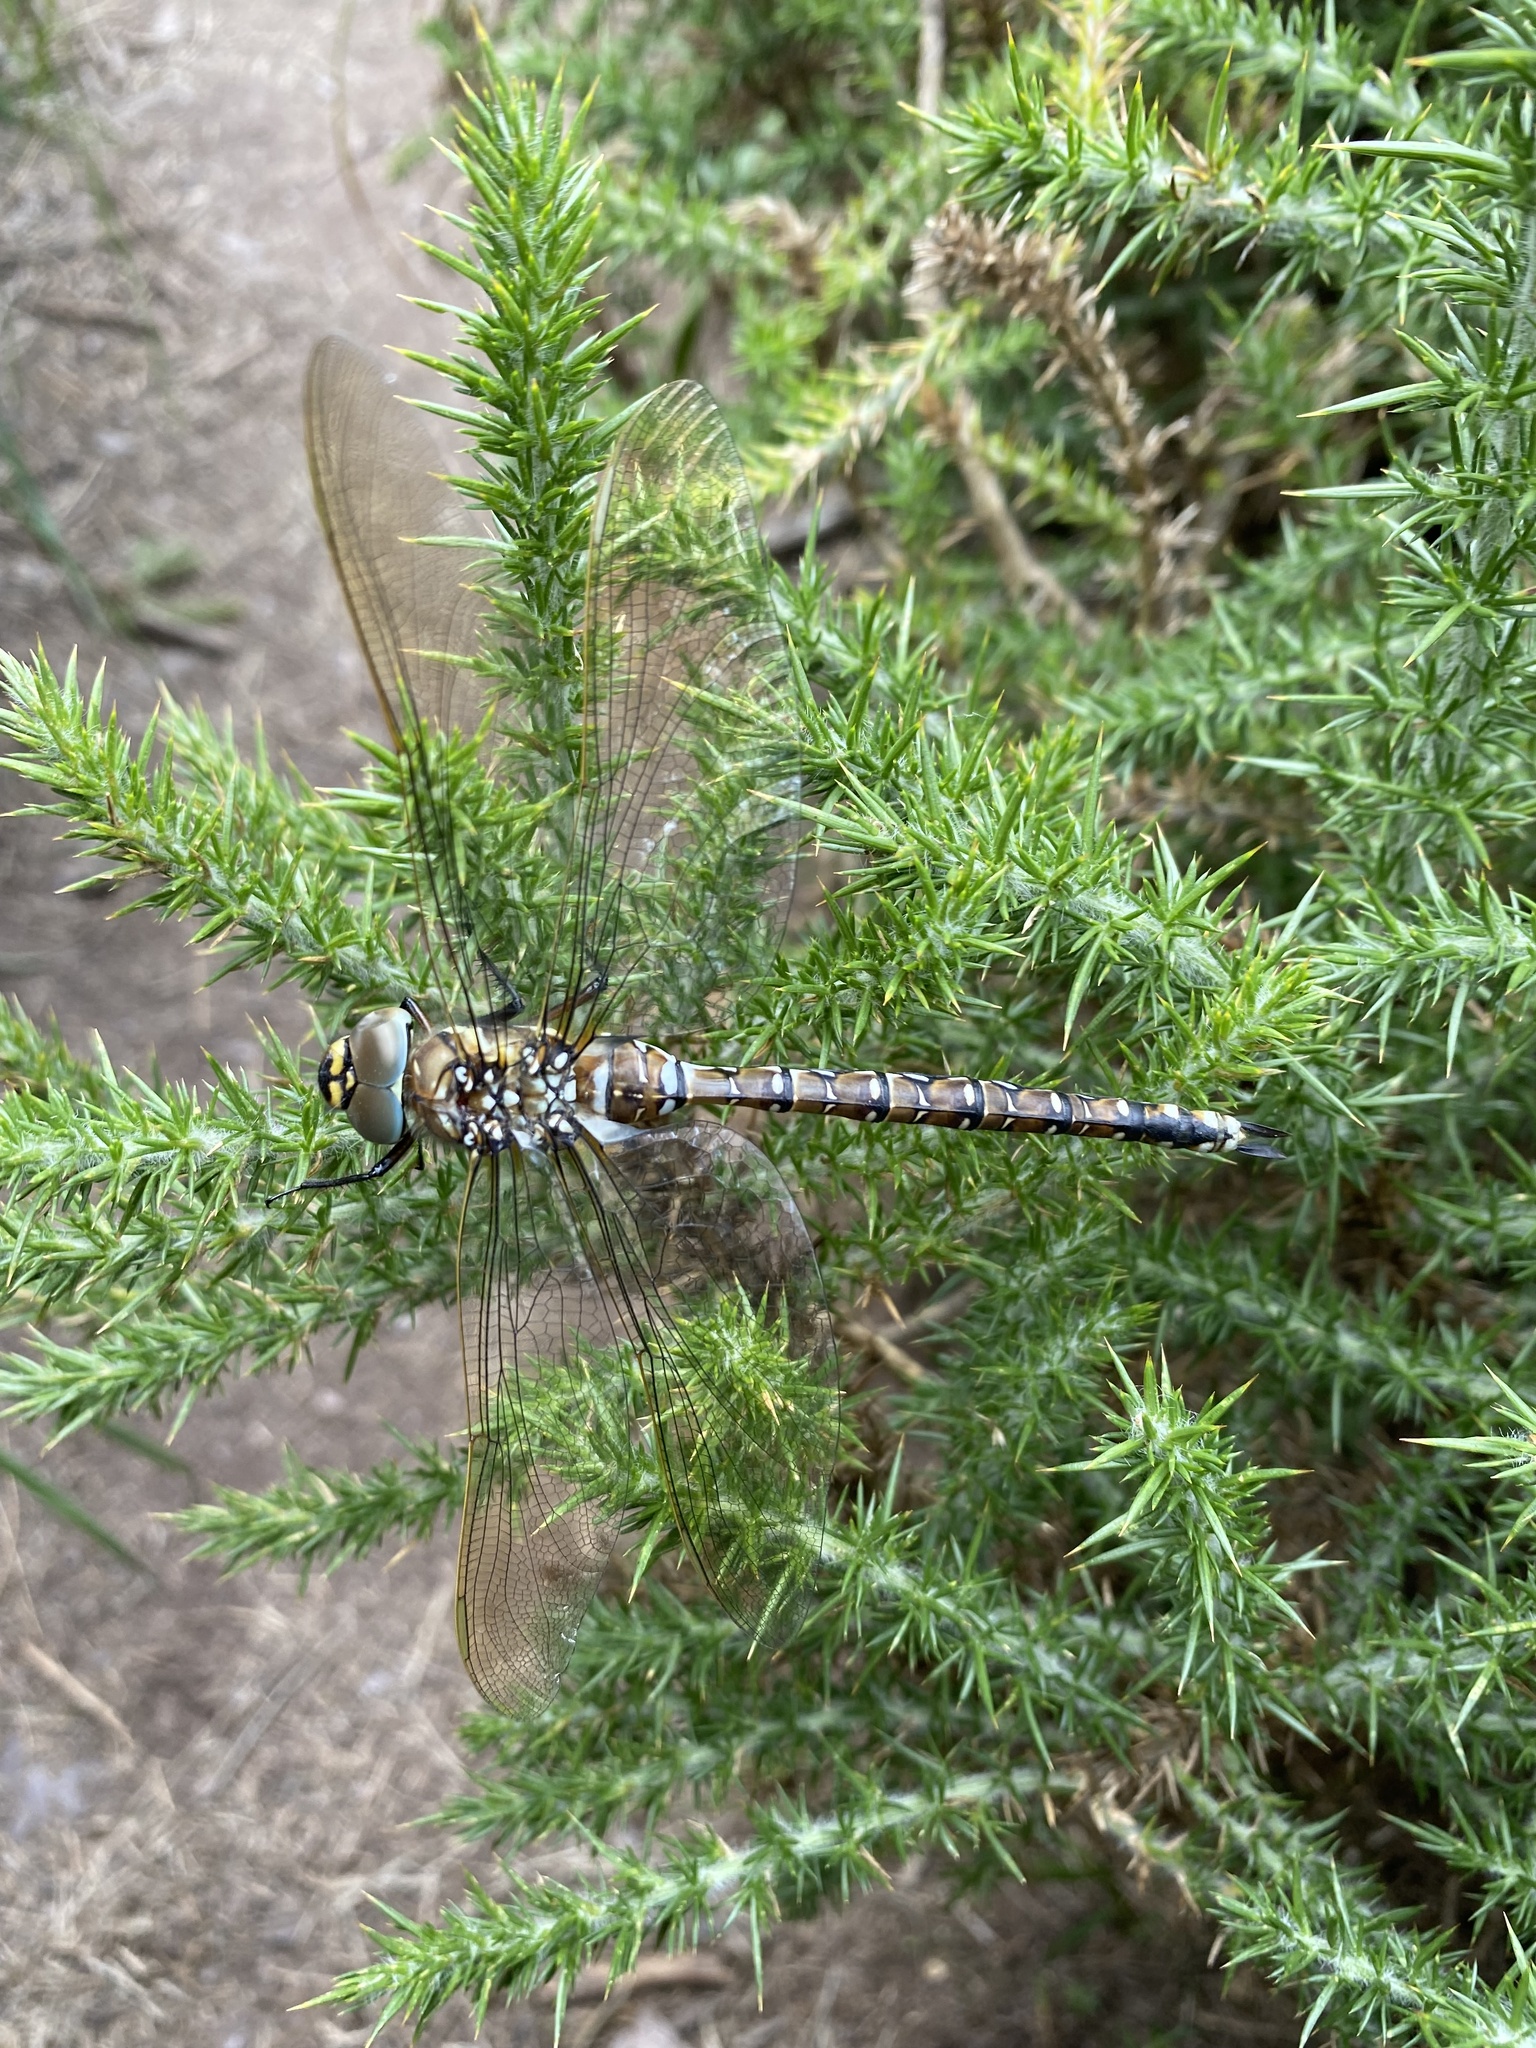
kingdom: Animalia
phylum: Arthropoda
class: Insecta
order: Odonata
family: Aeshnidae
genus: Aeshna
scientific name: Aeshna juncea
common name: Moorland hawker
